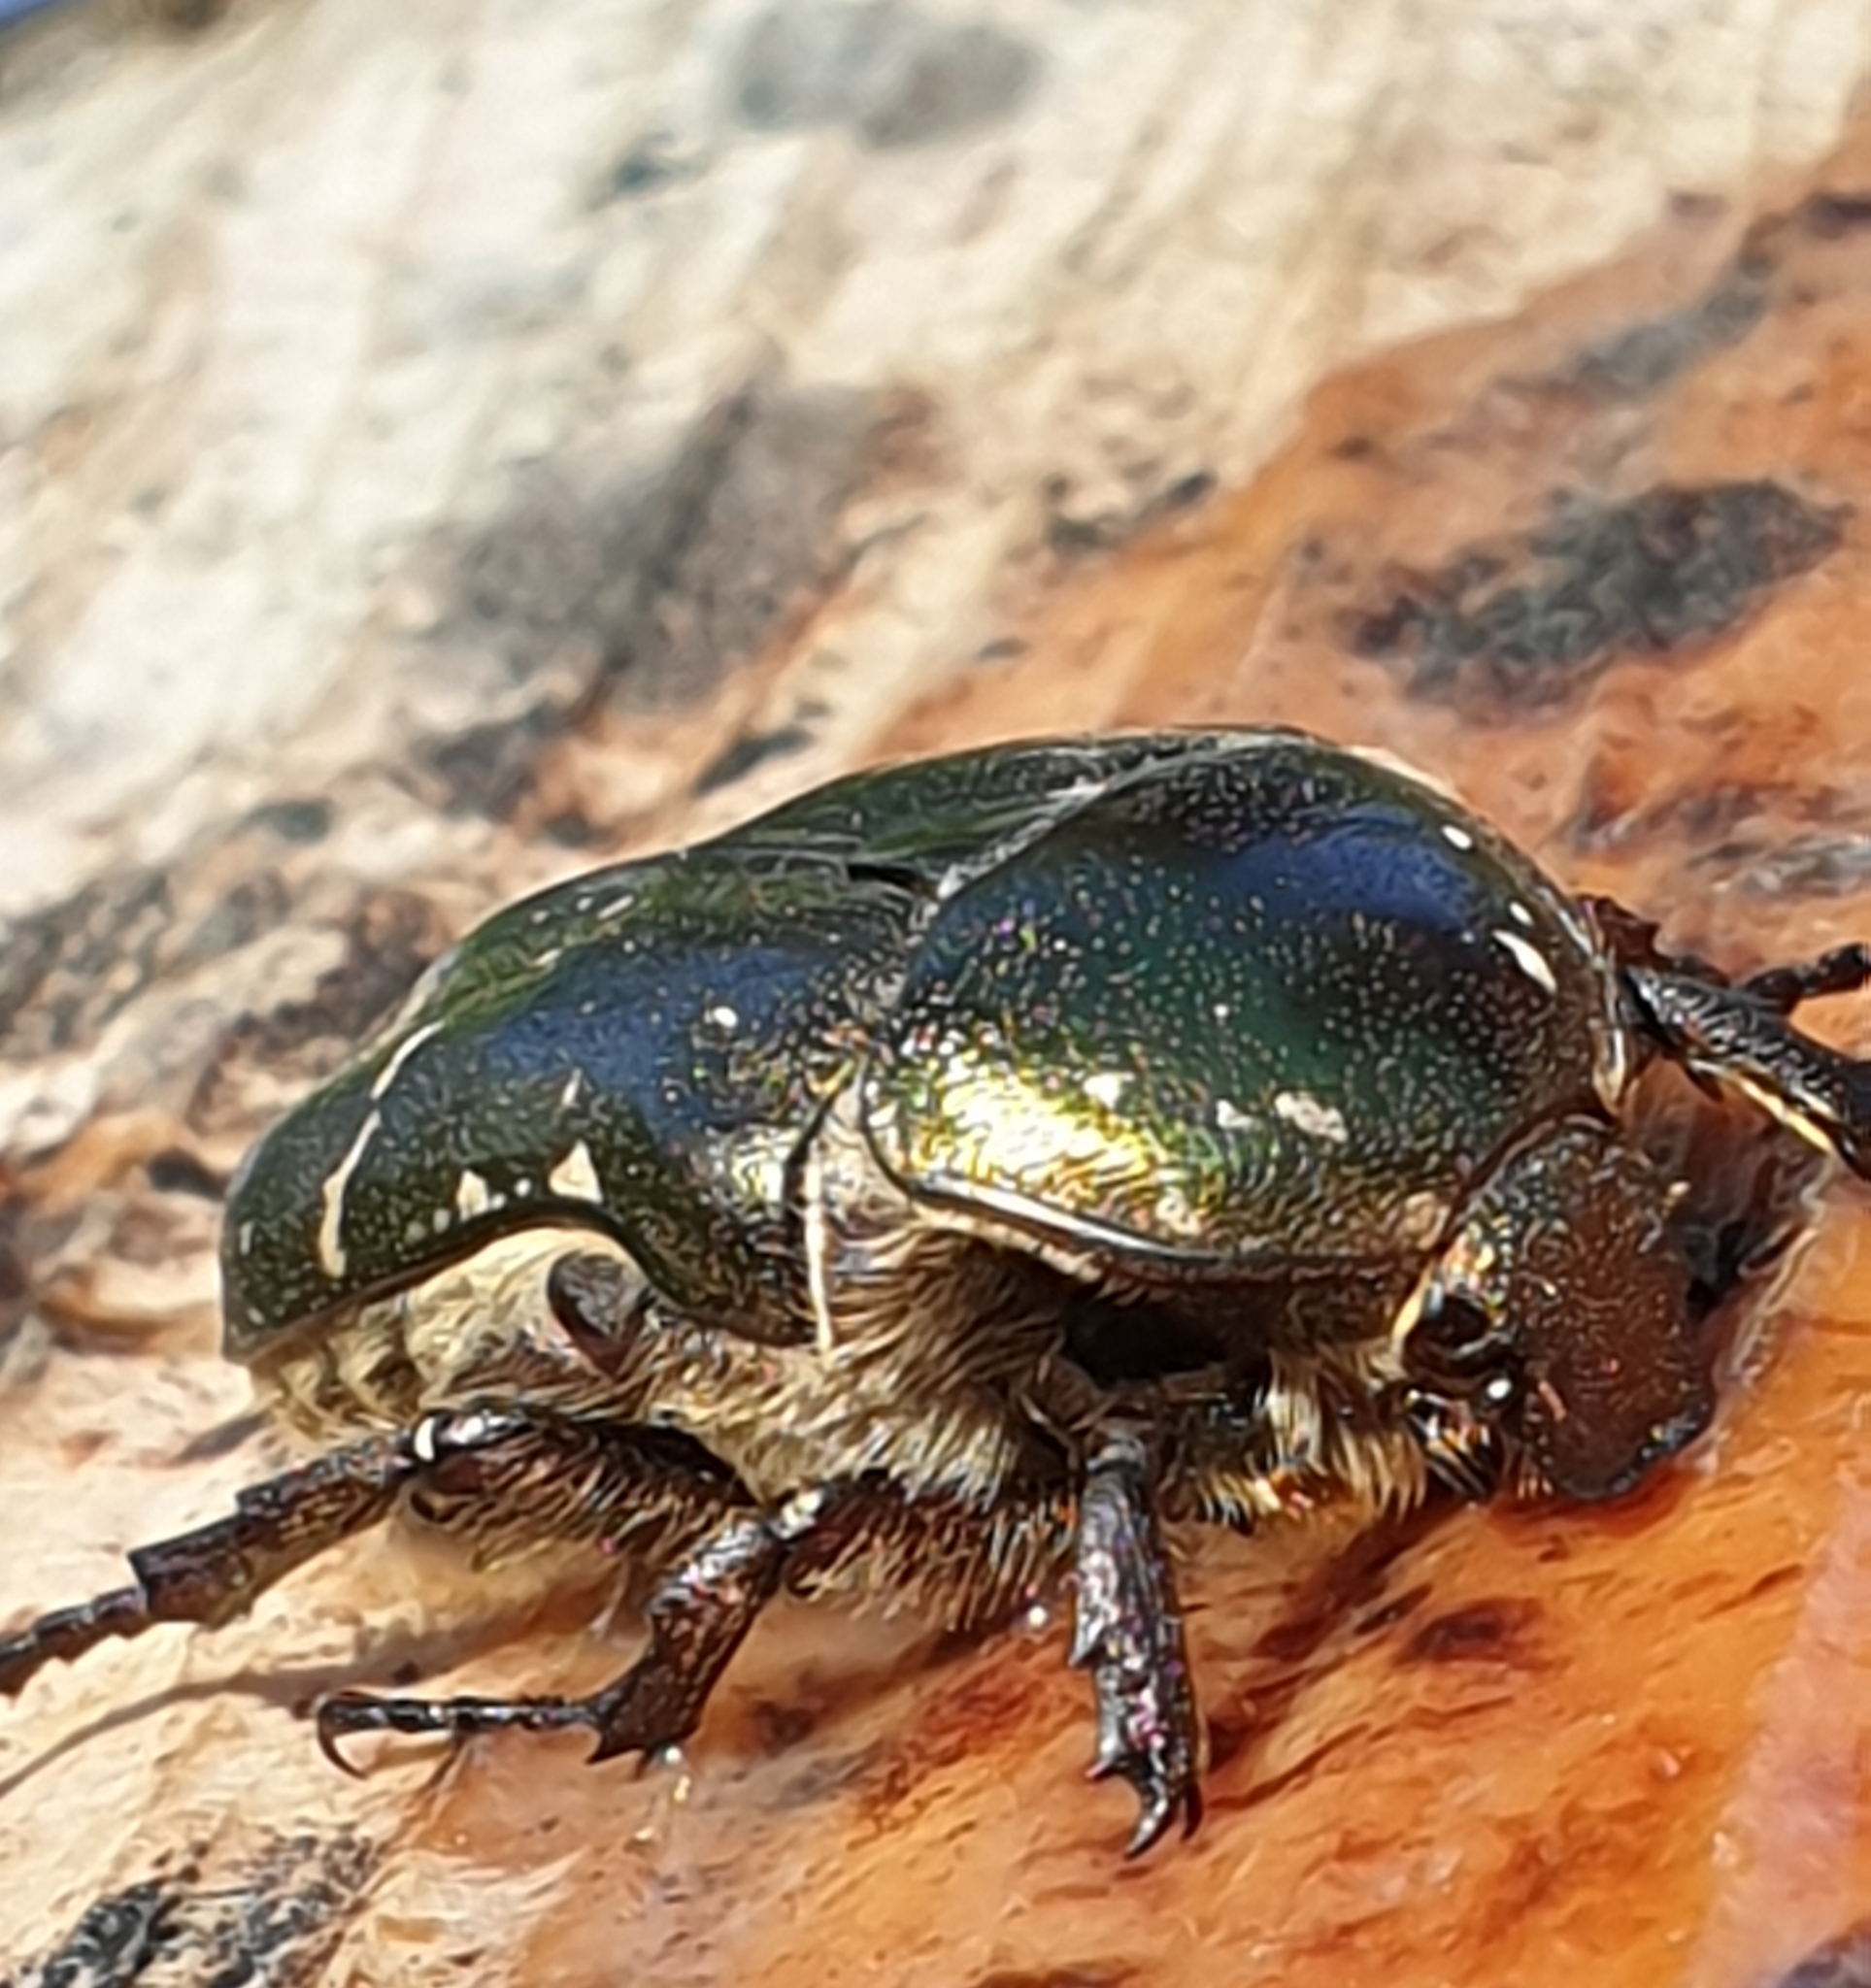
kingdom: Animalia
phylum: Arthropoda
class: Insecta
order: Coleoptera
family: Scarabaeidae
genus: Protaetia
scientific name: Protaetia cuprea
